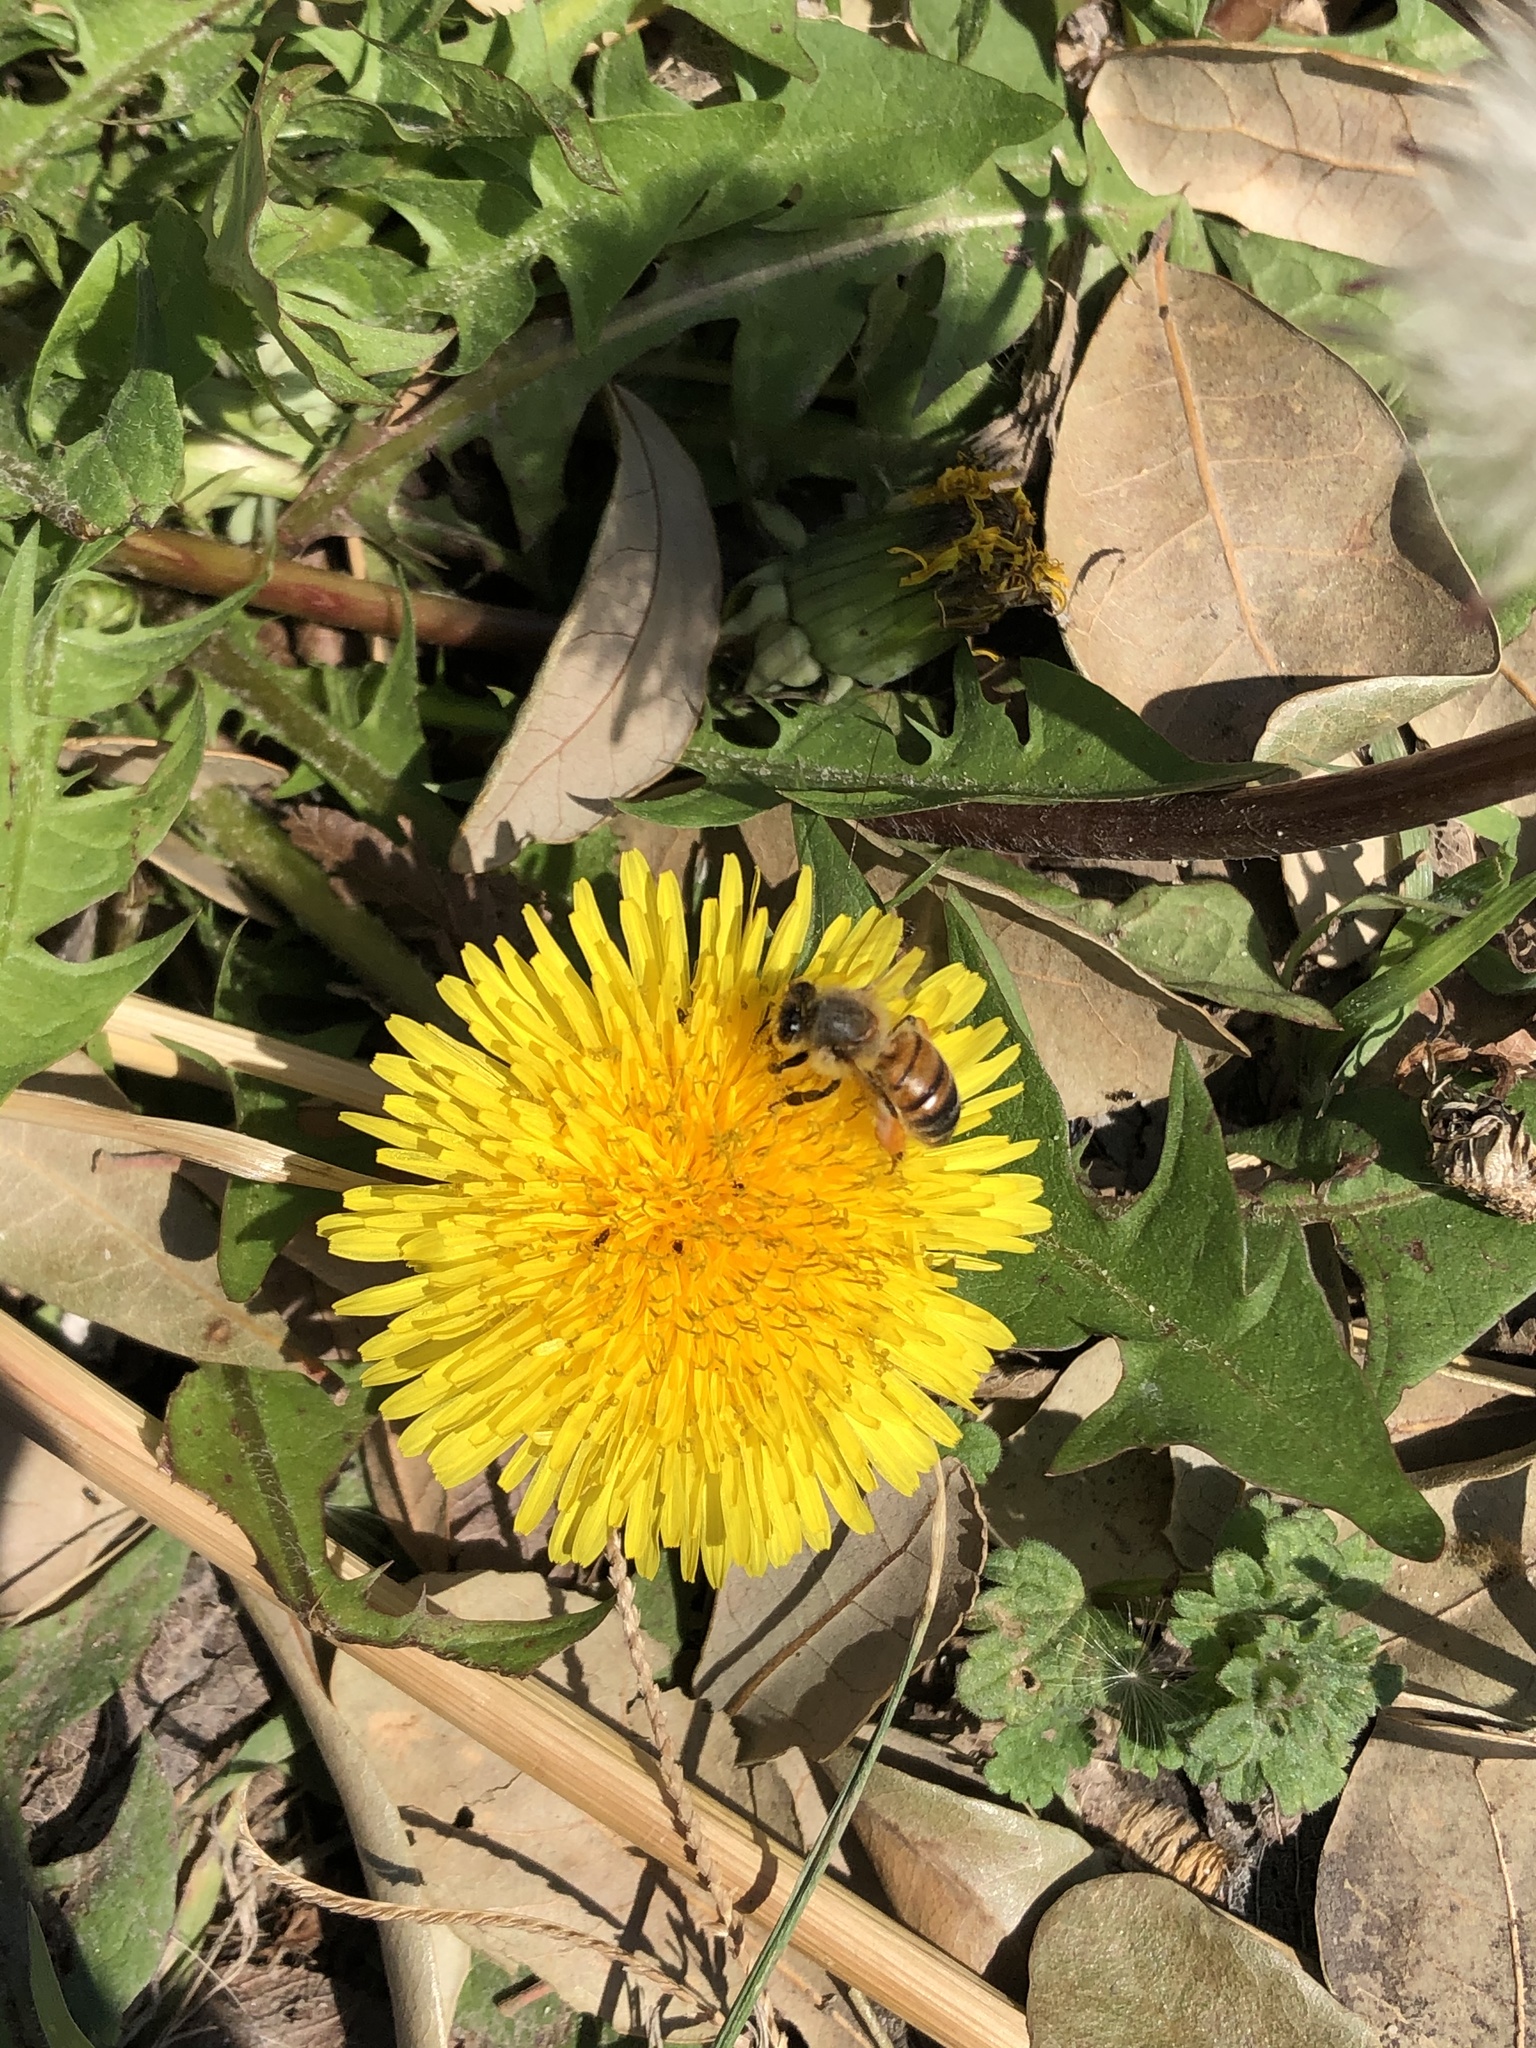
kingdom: Animalia
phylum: Arthropoda
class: Insecta
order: Hymenoptera
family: Apidae
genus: Apis
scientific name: Apis mellifera
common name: Honey bee
